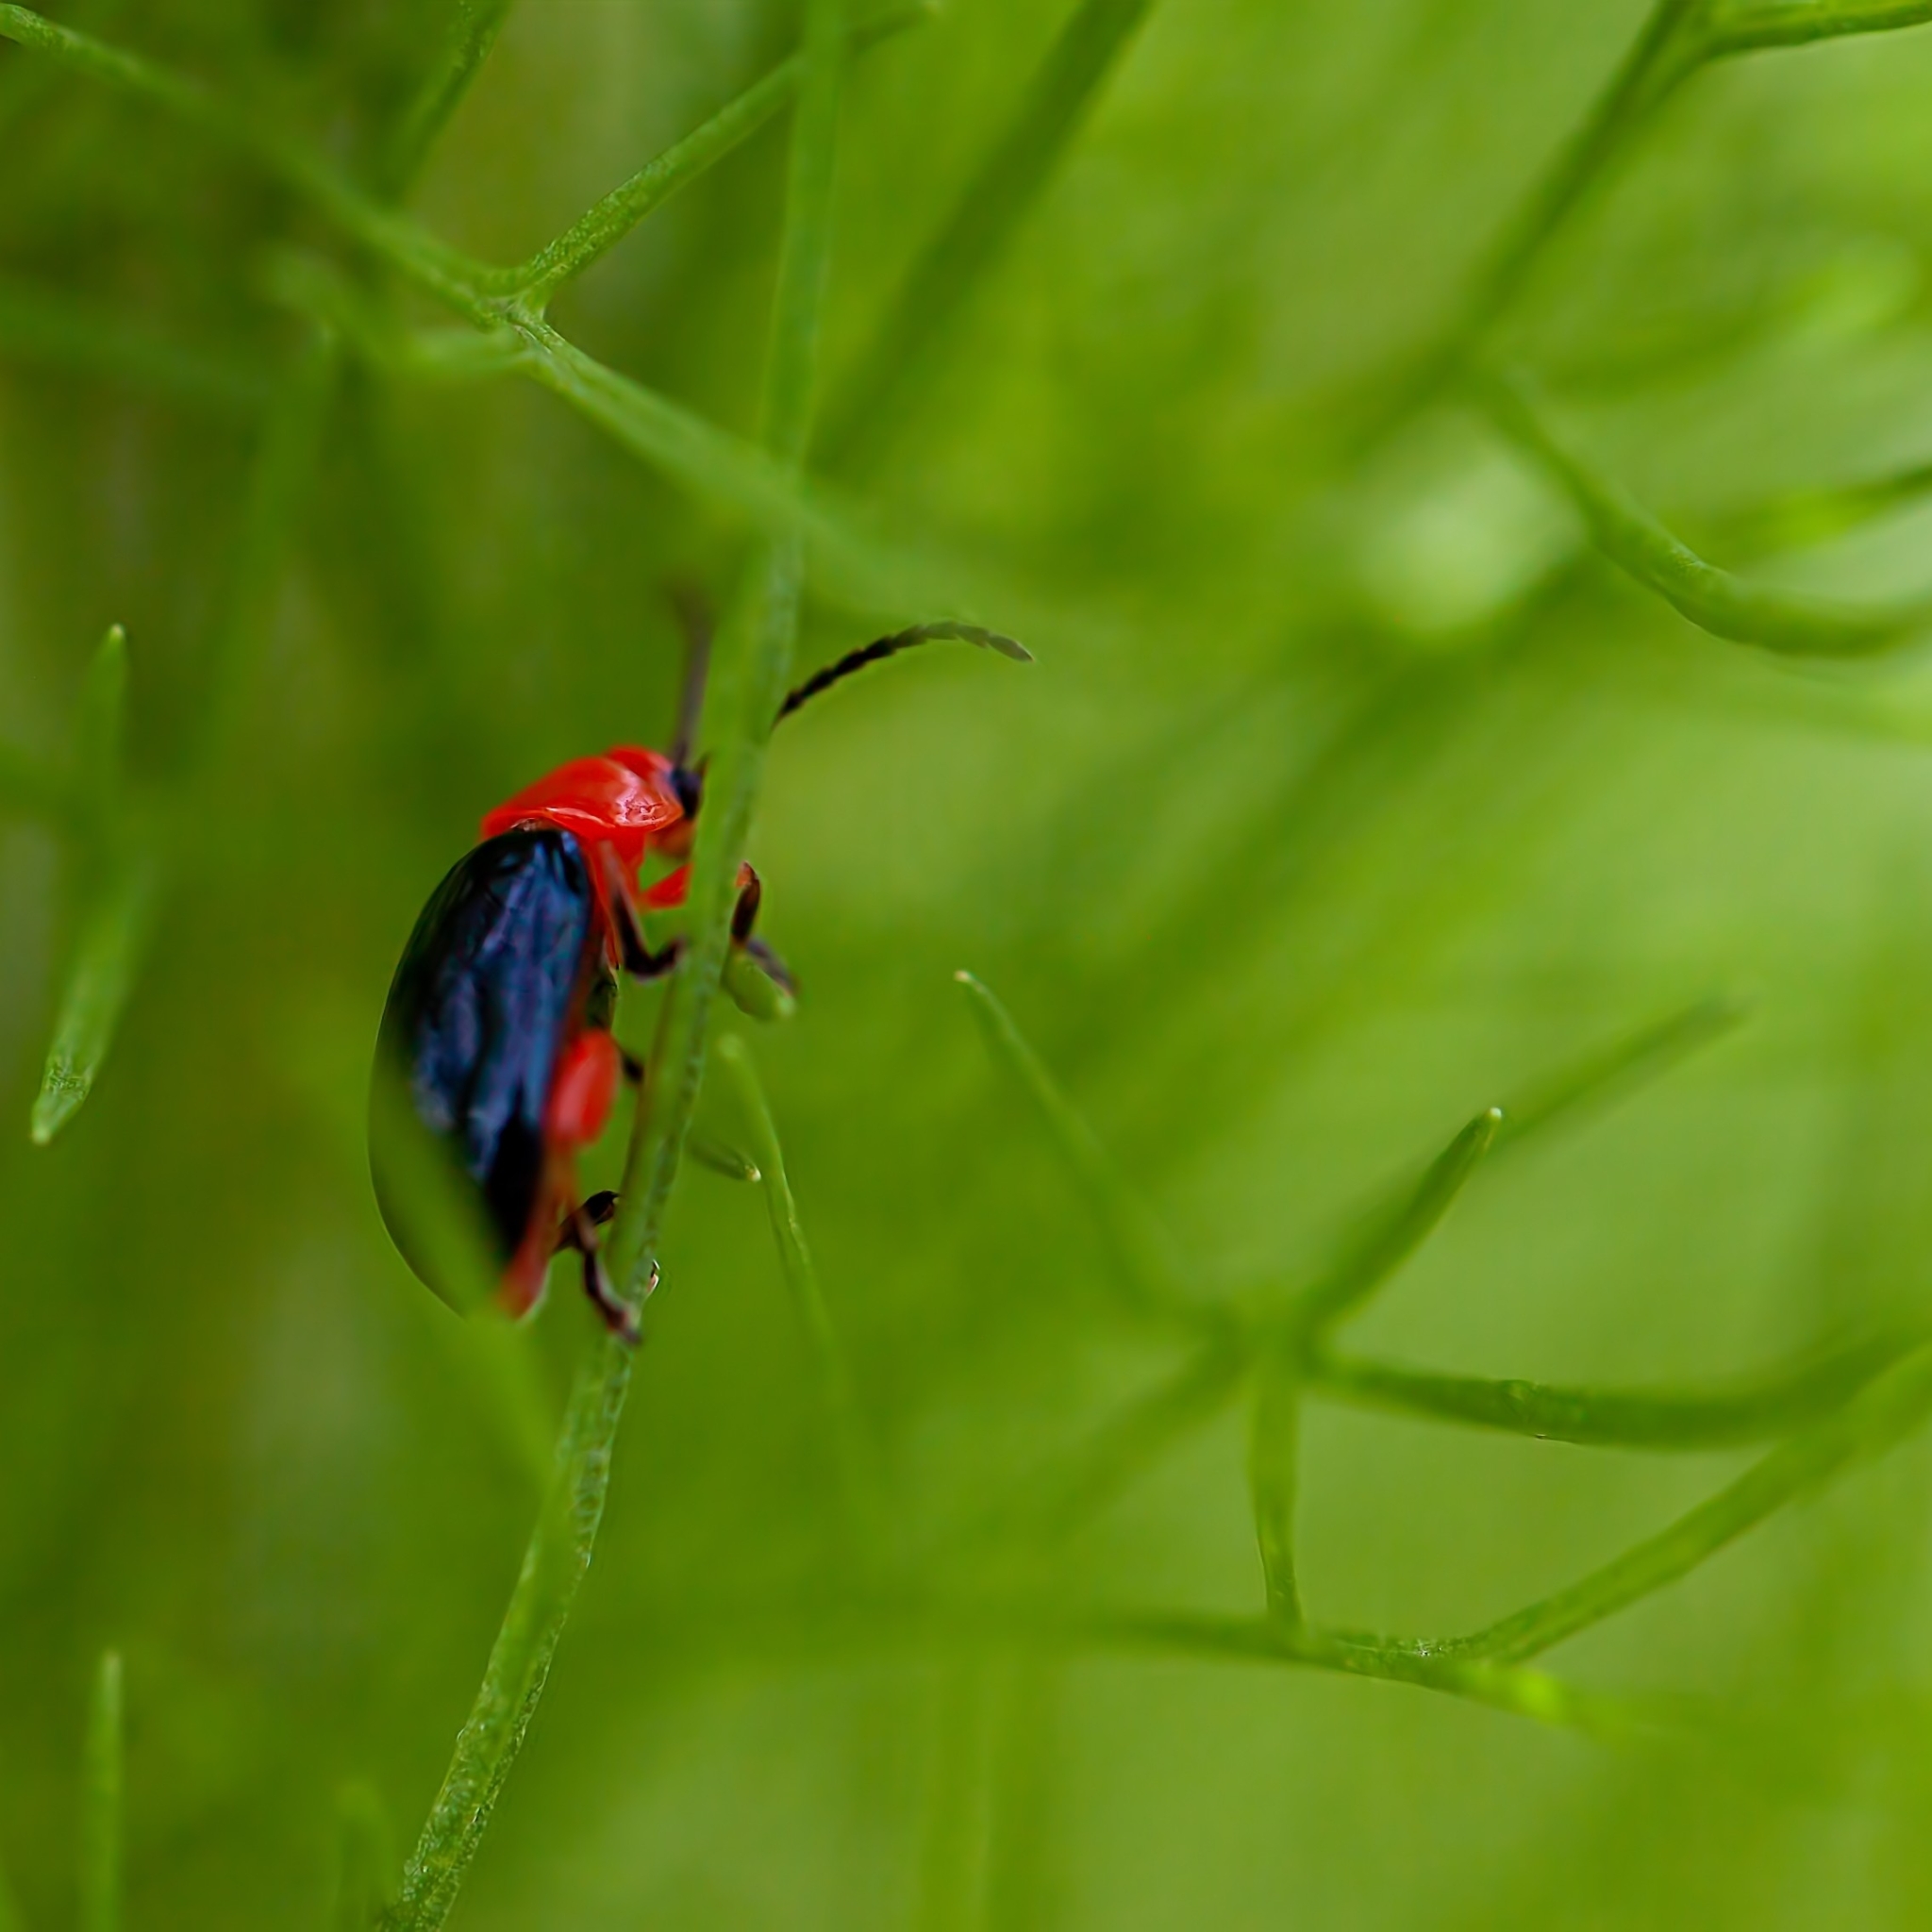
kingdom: Animalia
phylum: Arthropoda
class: Insecta
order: Coleoptera
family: Chrysomelidae
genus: Asphaera
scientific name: Asphaera lustrans
